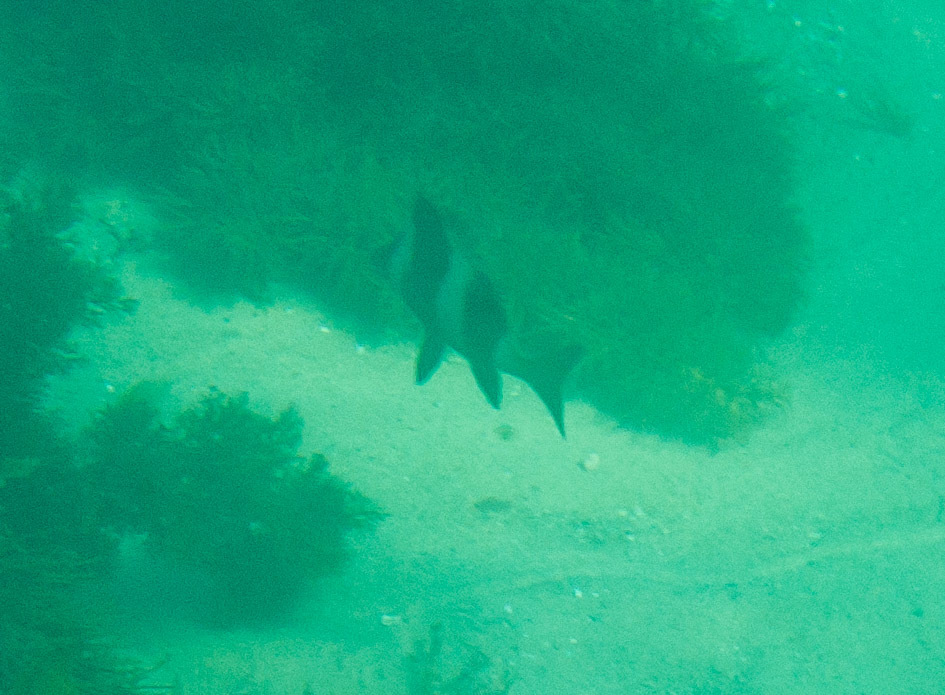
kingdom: Animalia
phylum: Chordata
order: Perciformes
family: Latridae
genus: Pseudogoniistius
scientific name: Pseudogoniistius nigripes
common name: Black-striped morwong
